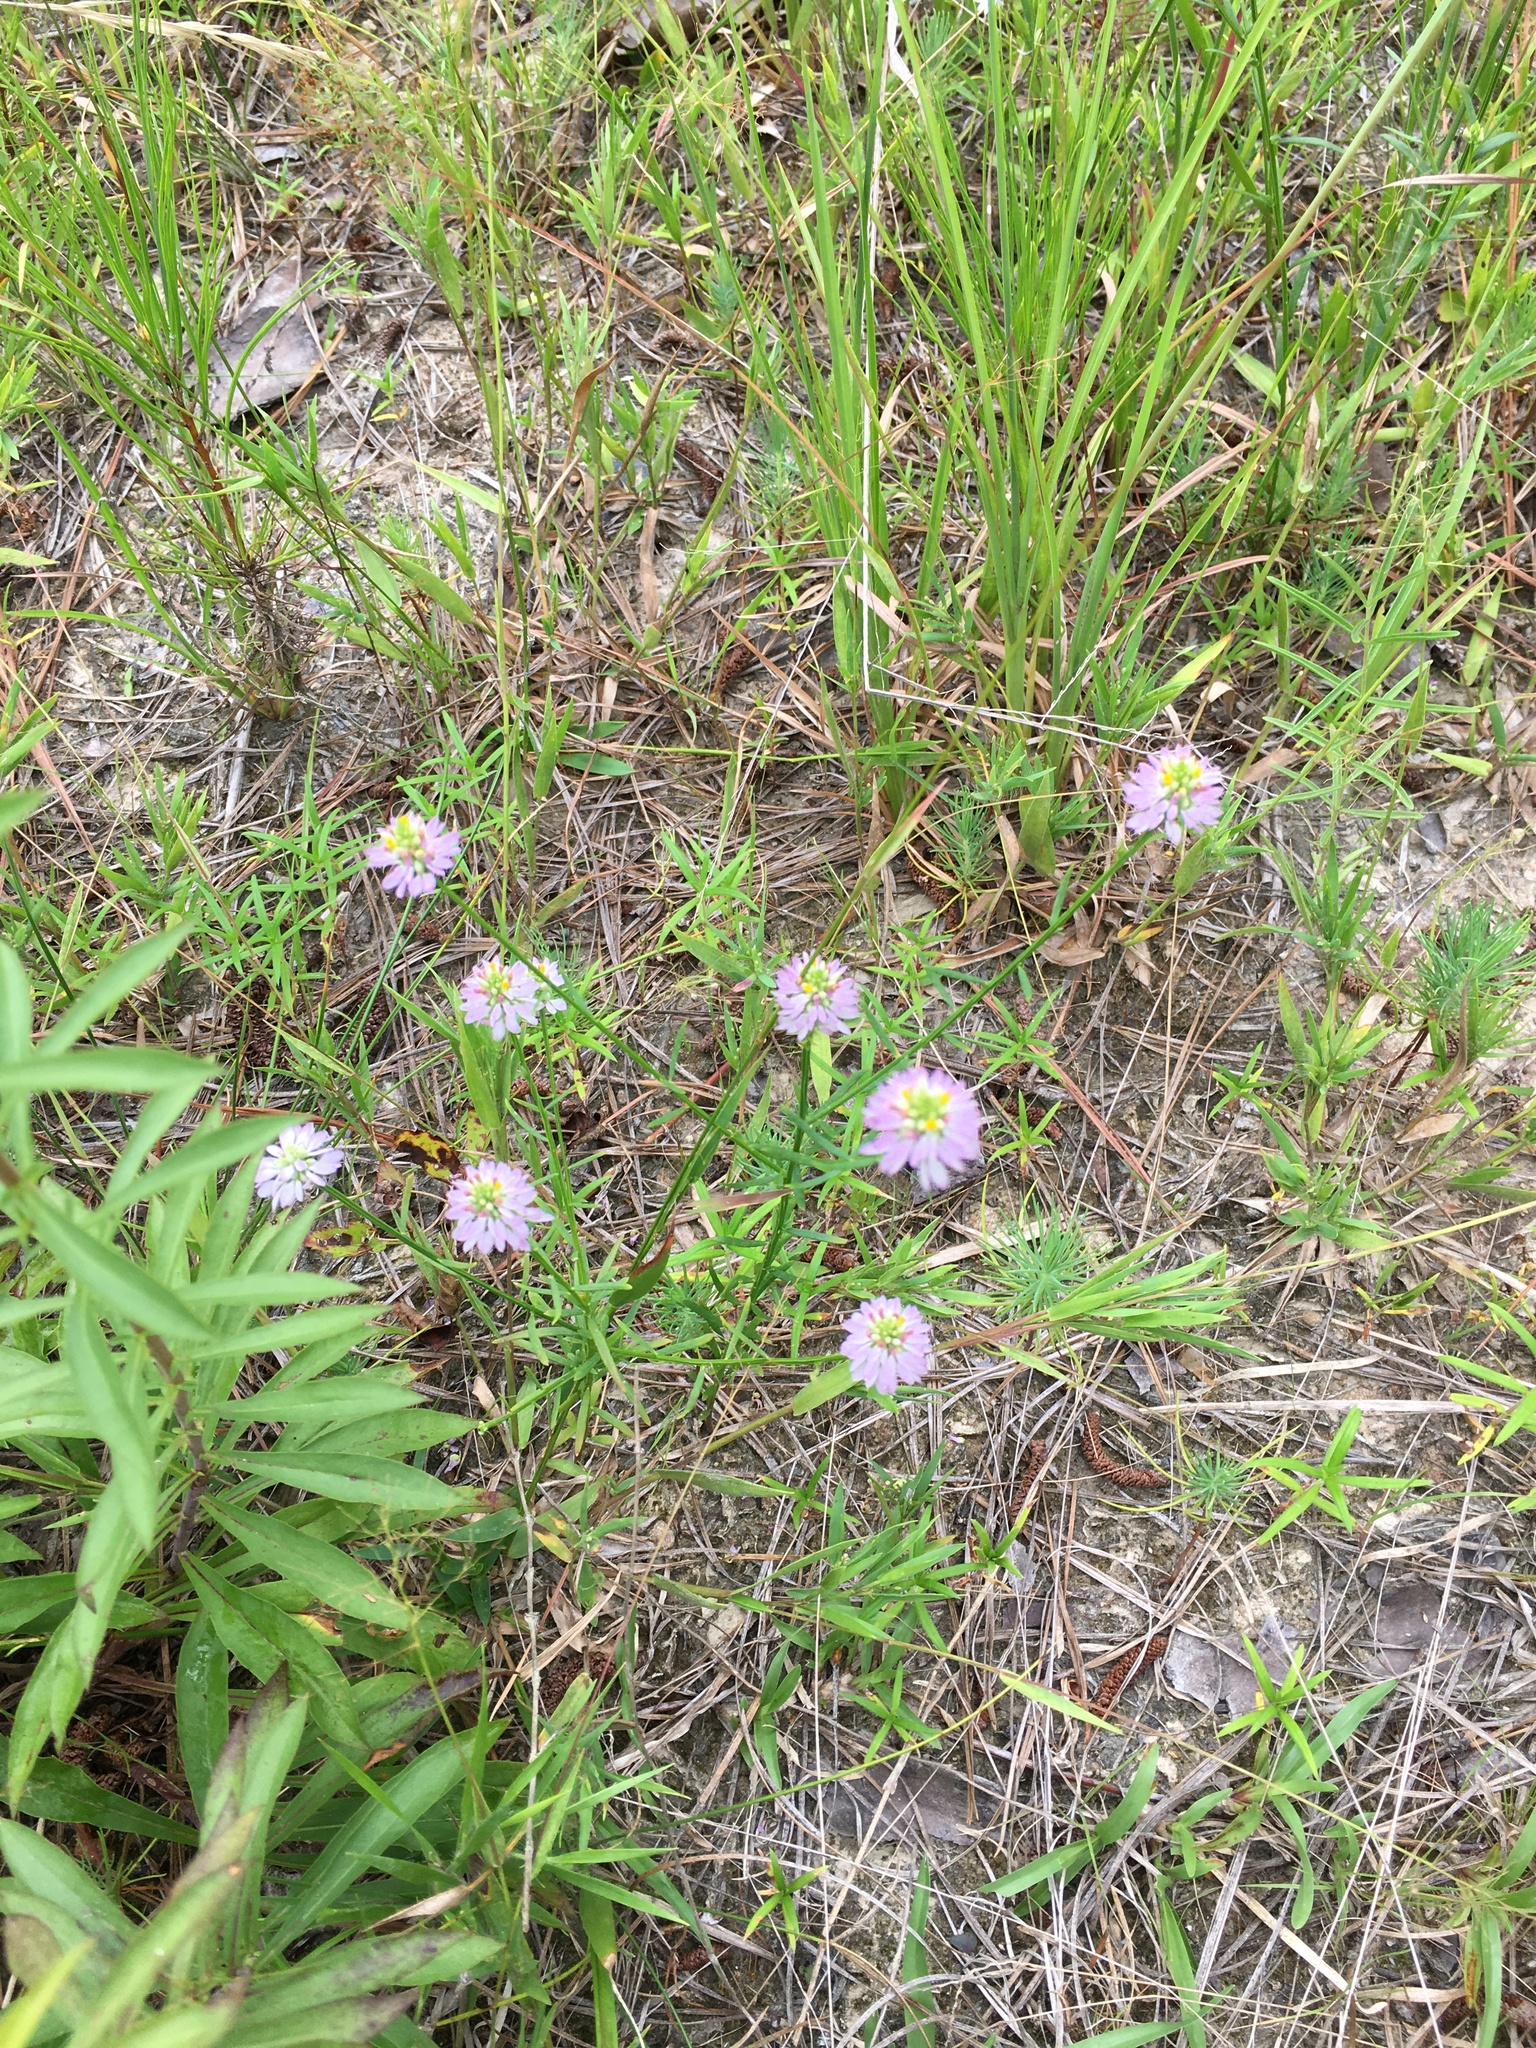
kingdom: Plantae
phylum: Tracheophyta
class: Magnoliopsida
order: Fabales
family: Polygalaceae
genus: Polygala
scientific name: Polygala curtissii
